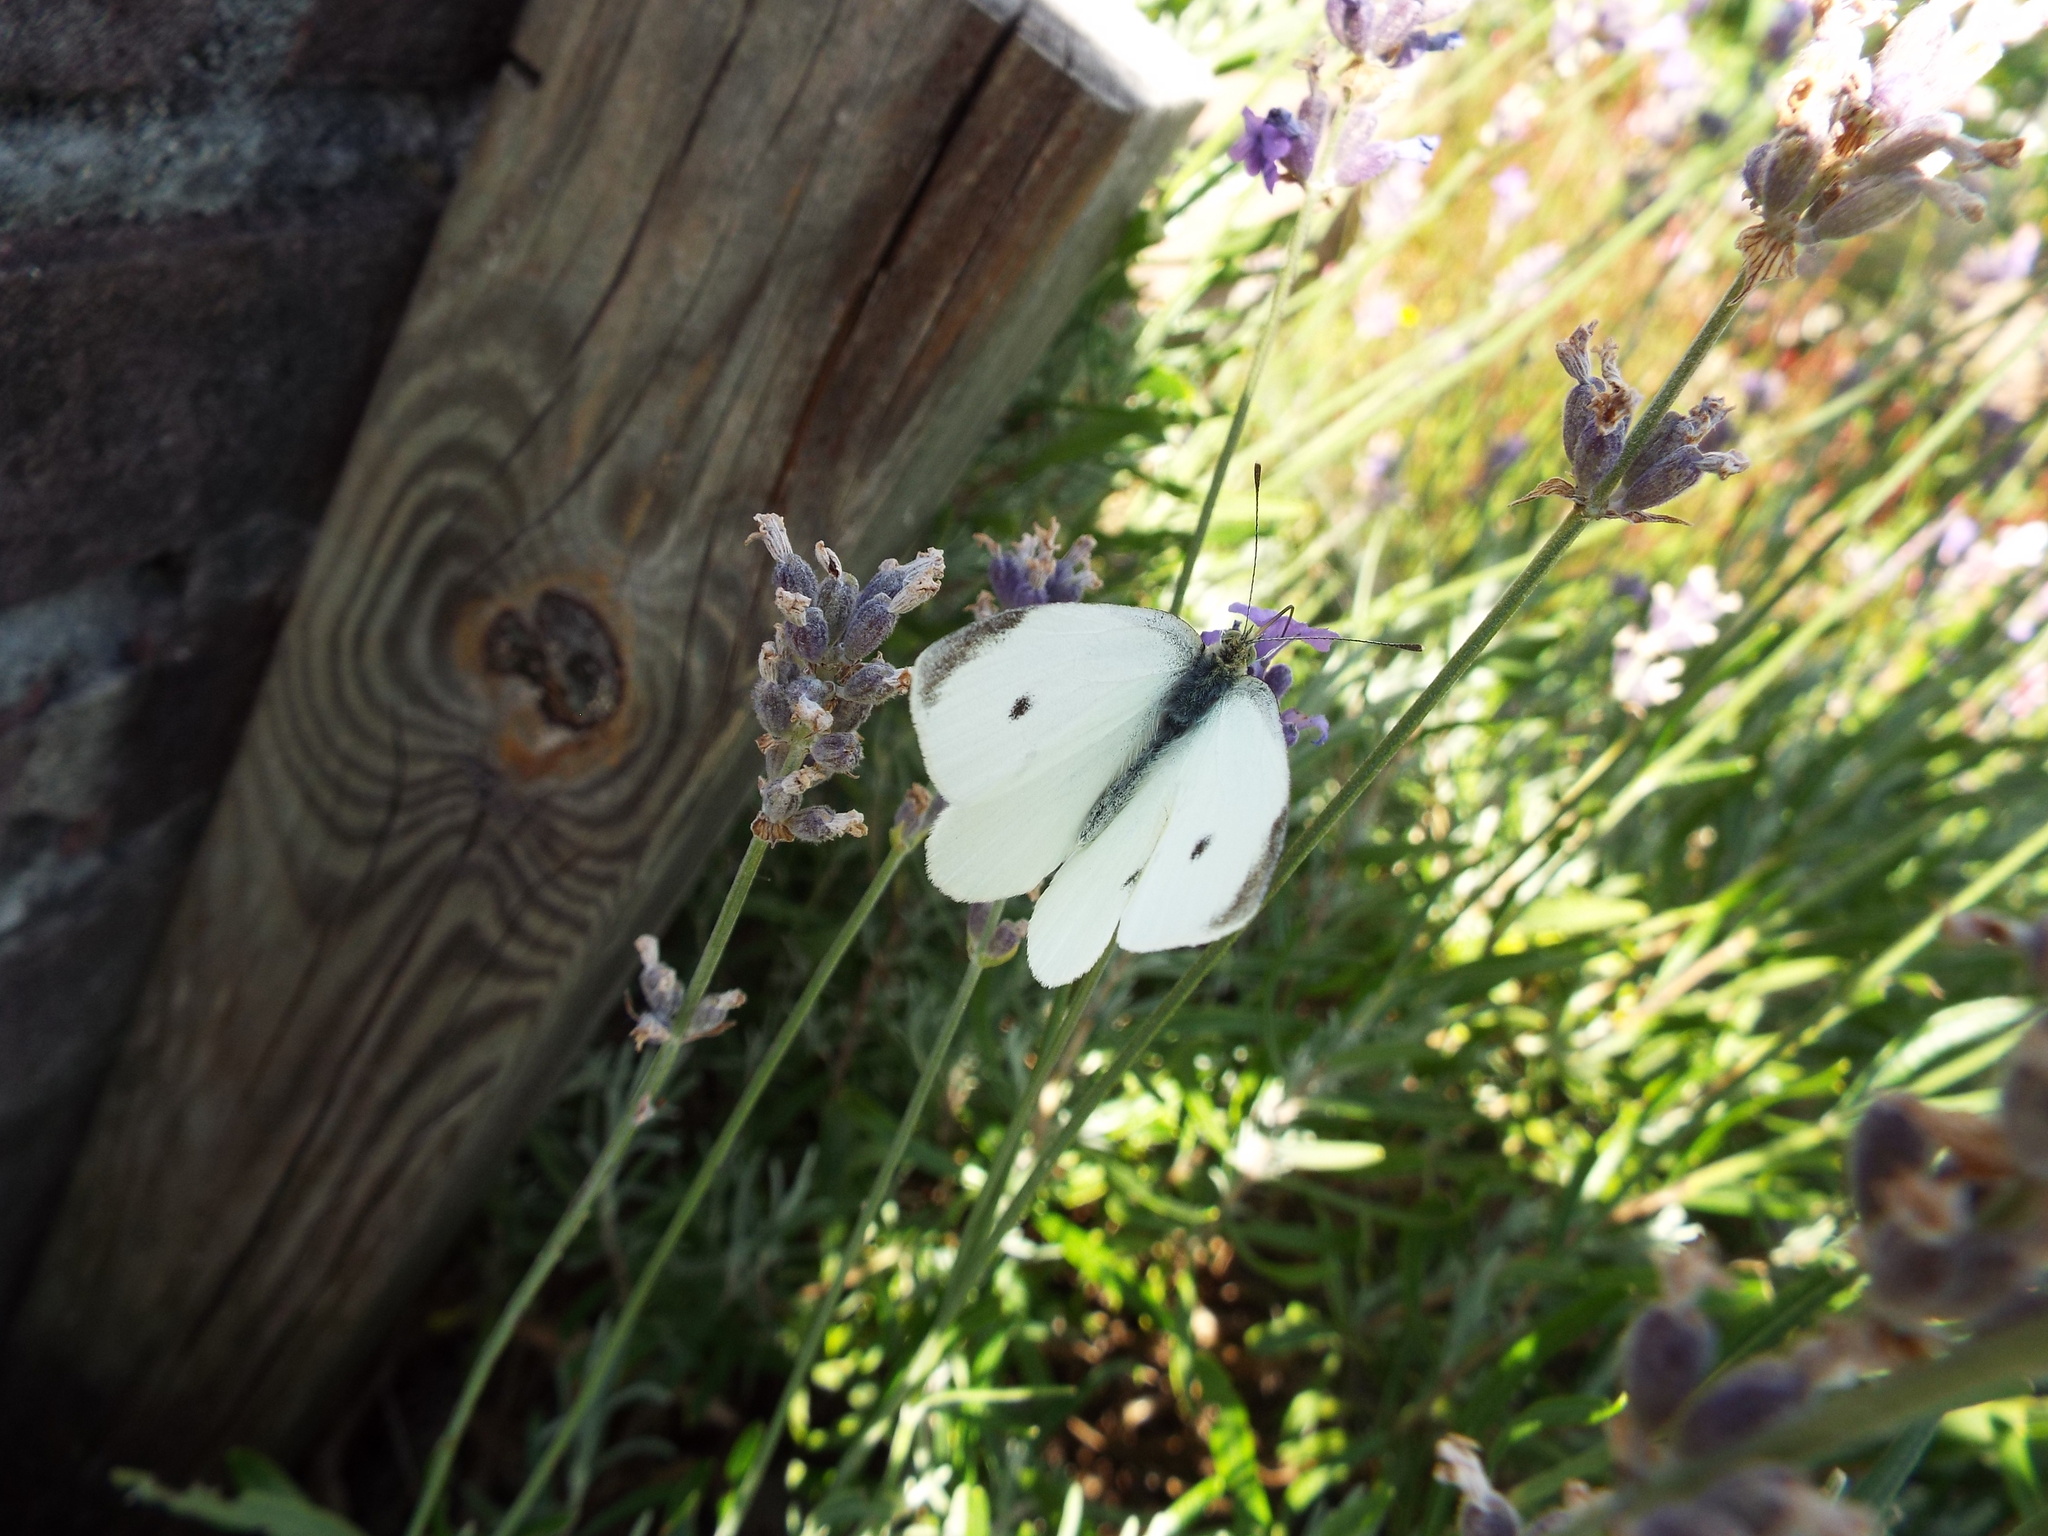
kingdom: Animalia
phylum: Arthropoda
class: Insecta
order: Lepidoptera
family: Pieridae
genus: Pieris
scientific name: Pieris rapae
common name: Small white
